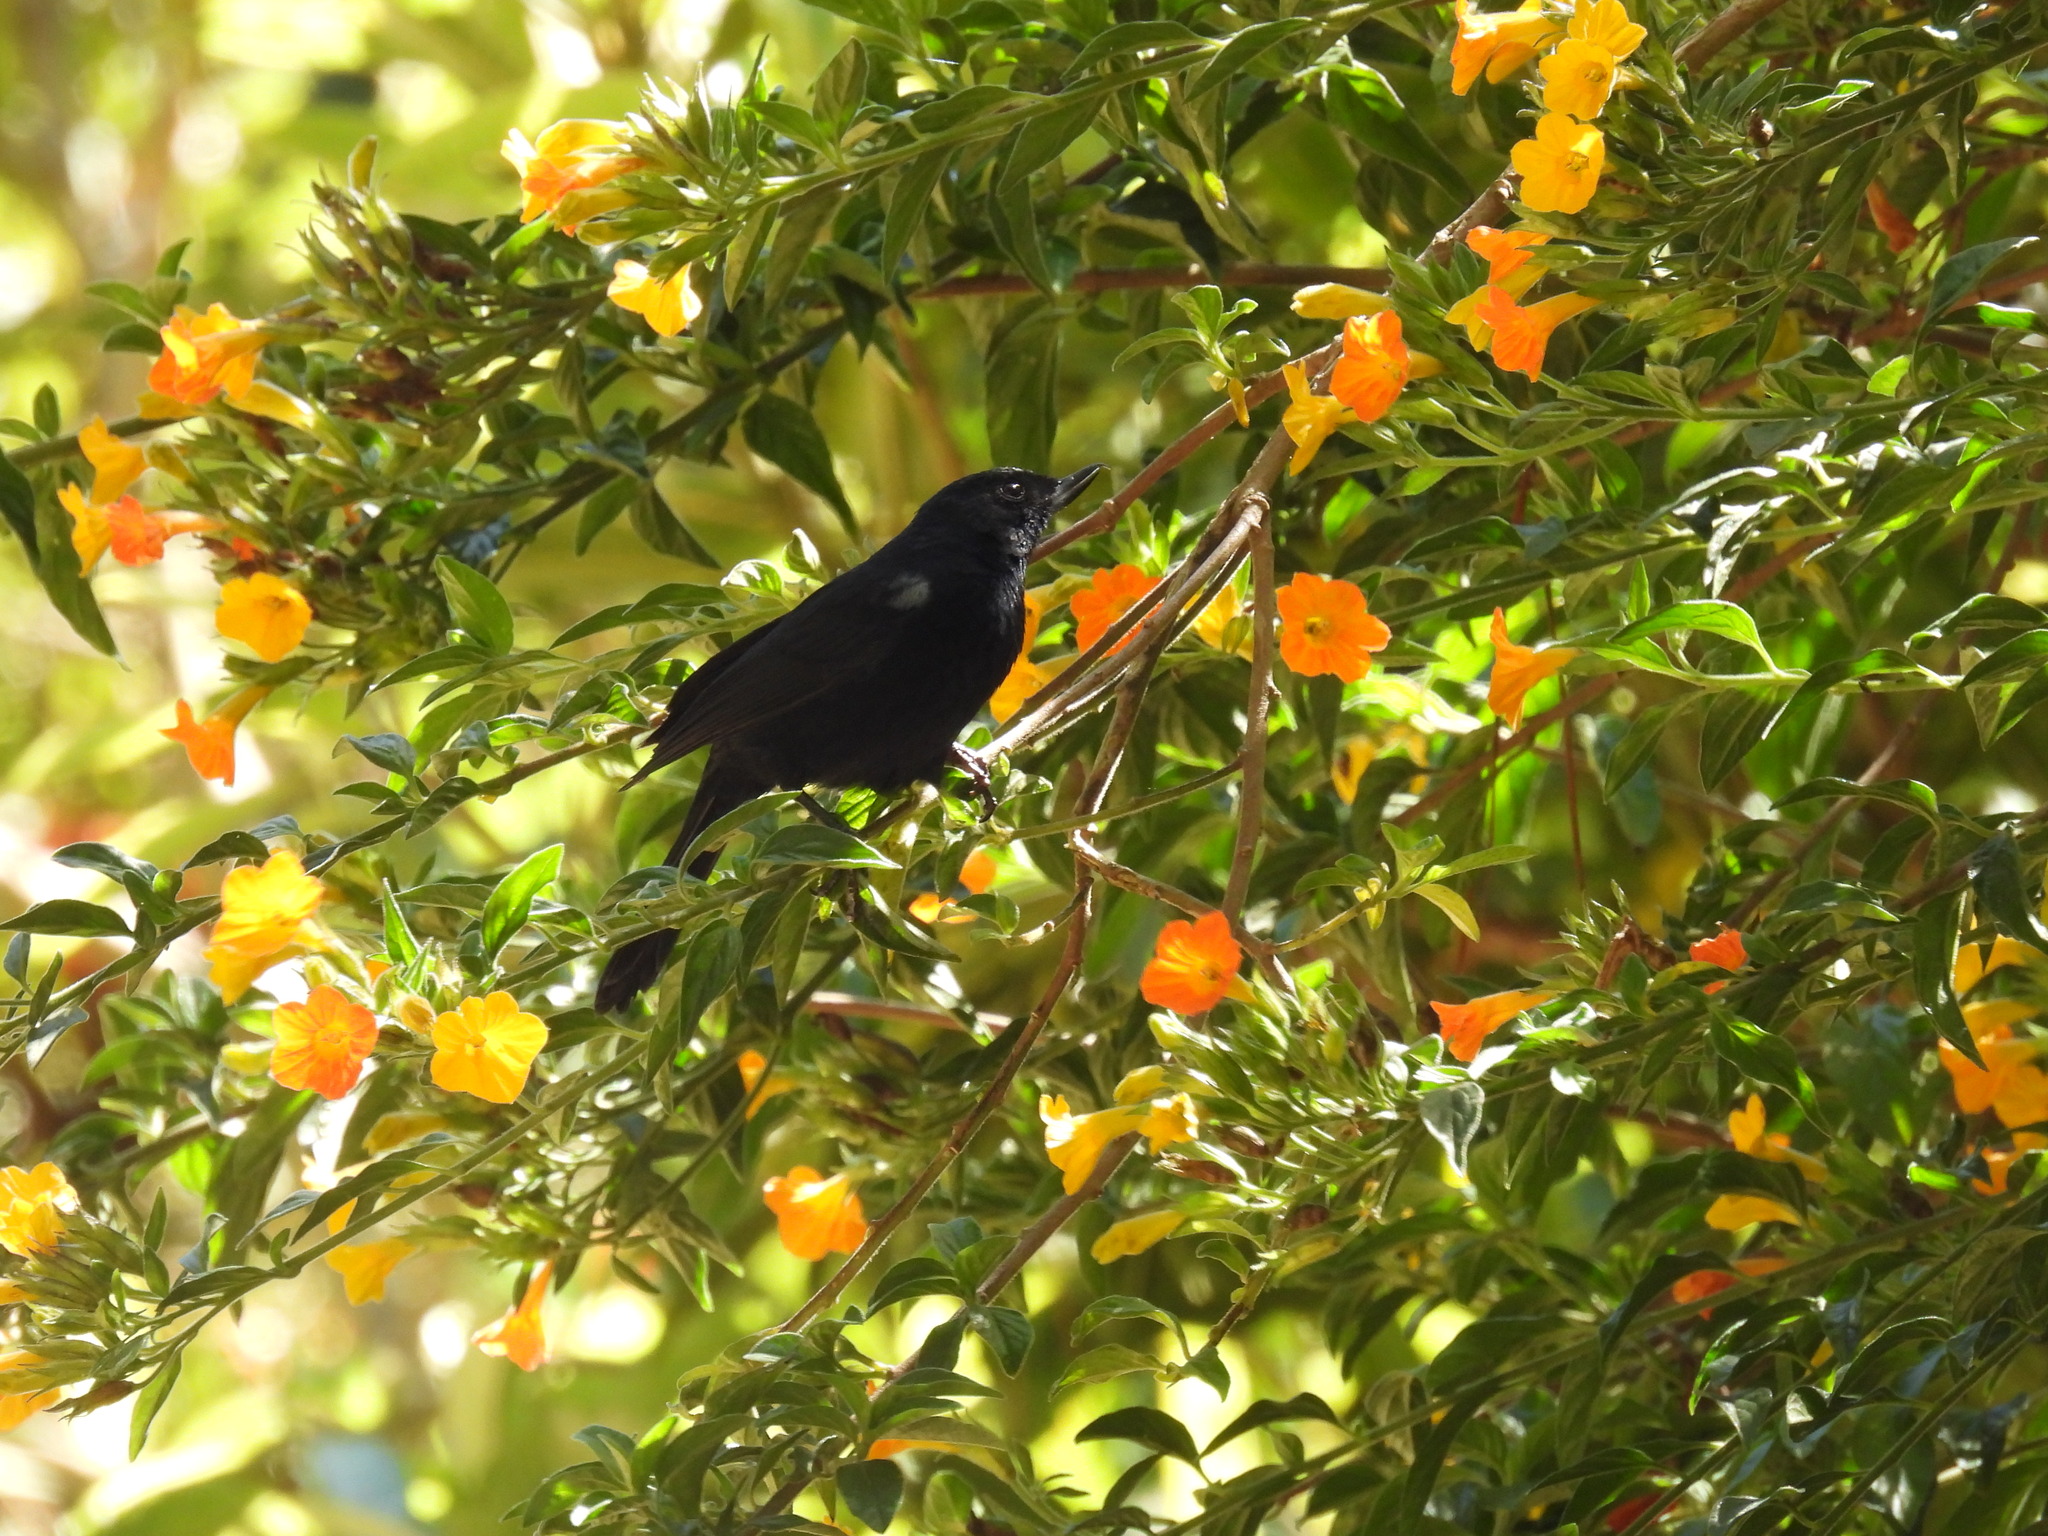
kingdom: Animalia
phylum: Chordata
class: Aves
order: Passeriformes
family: Thraupidae
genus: Diglossa
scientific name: Diglossa humeralis
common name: Black flowerpiercer
